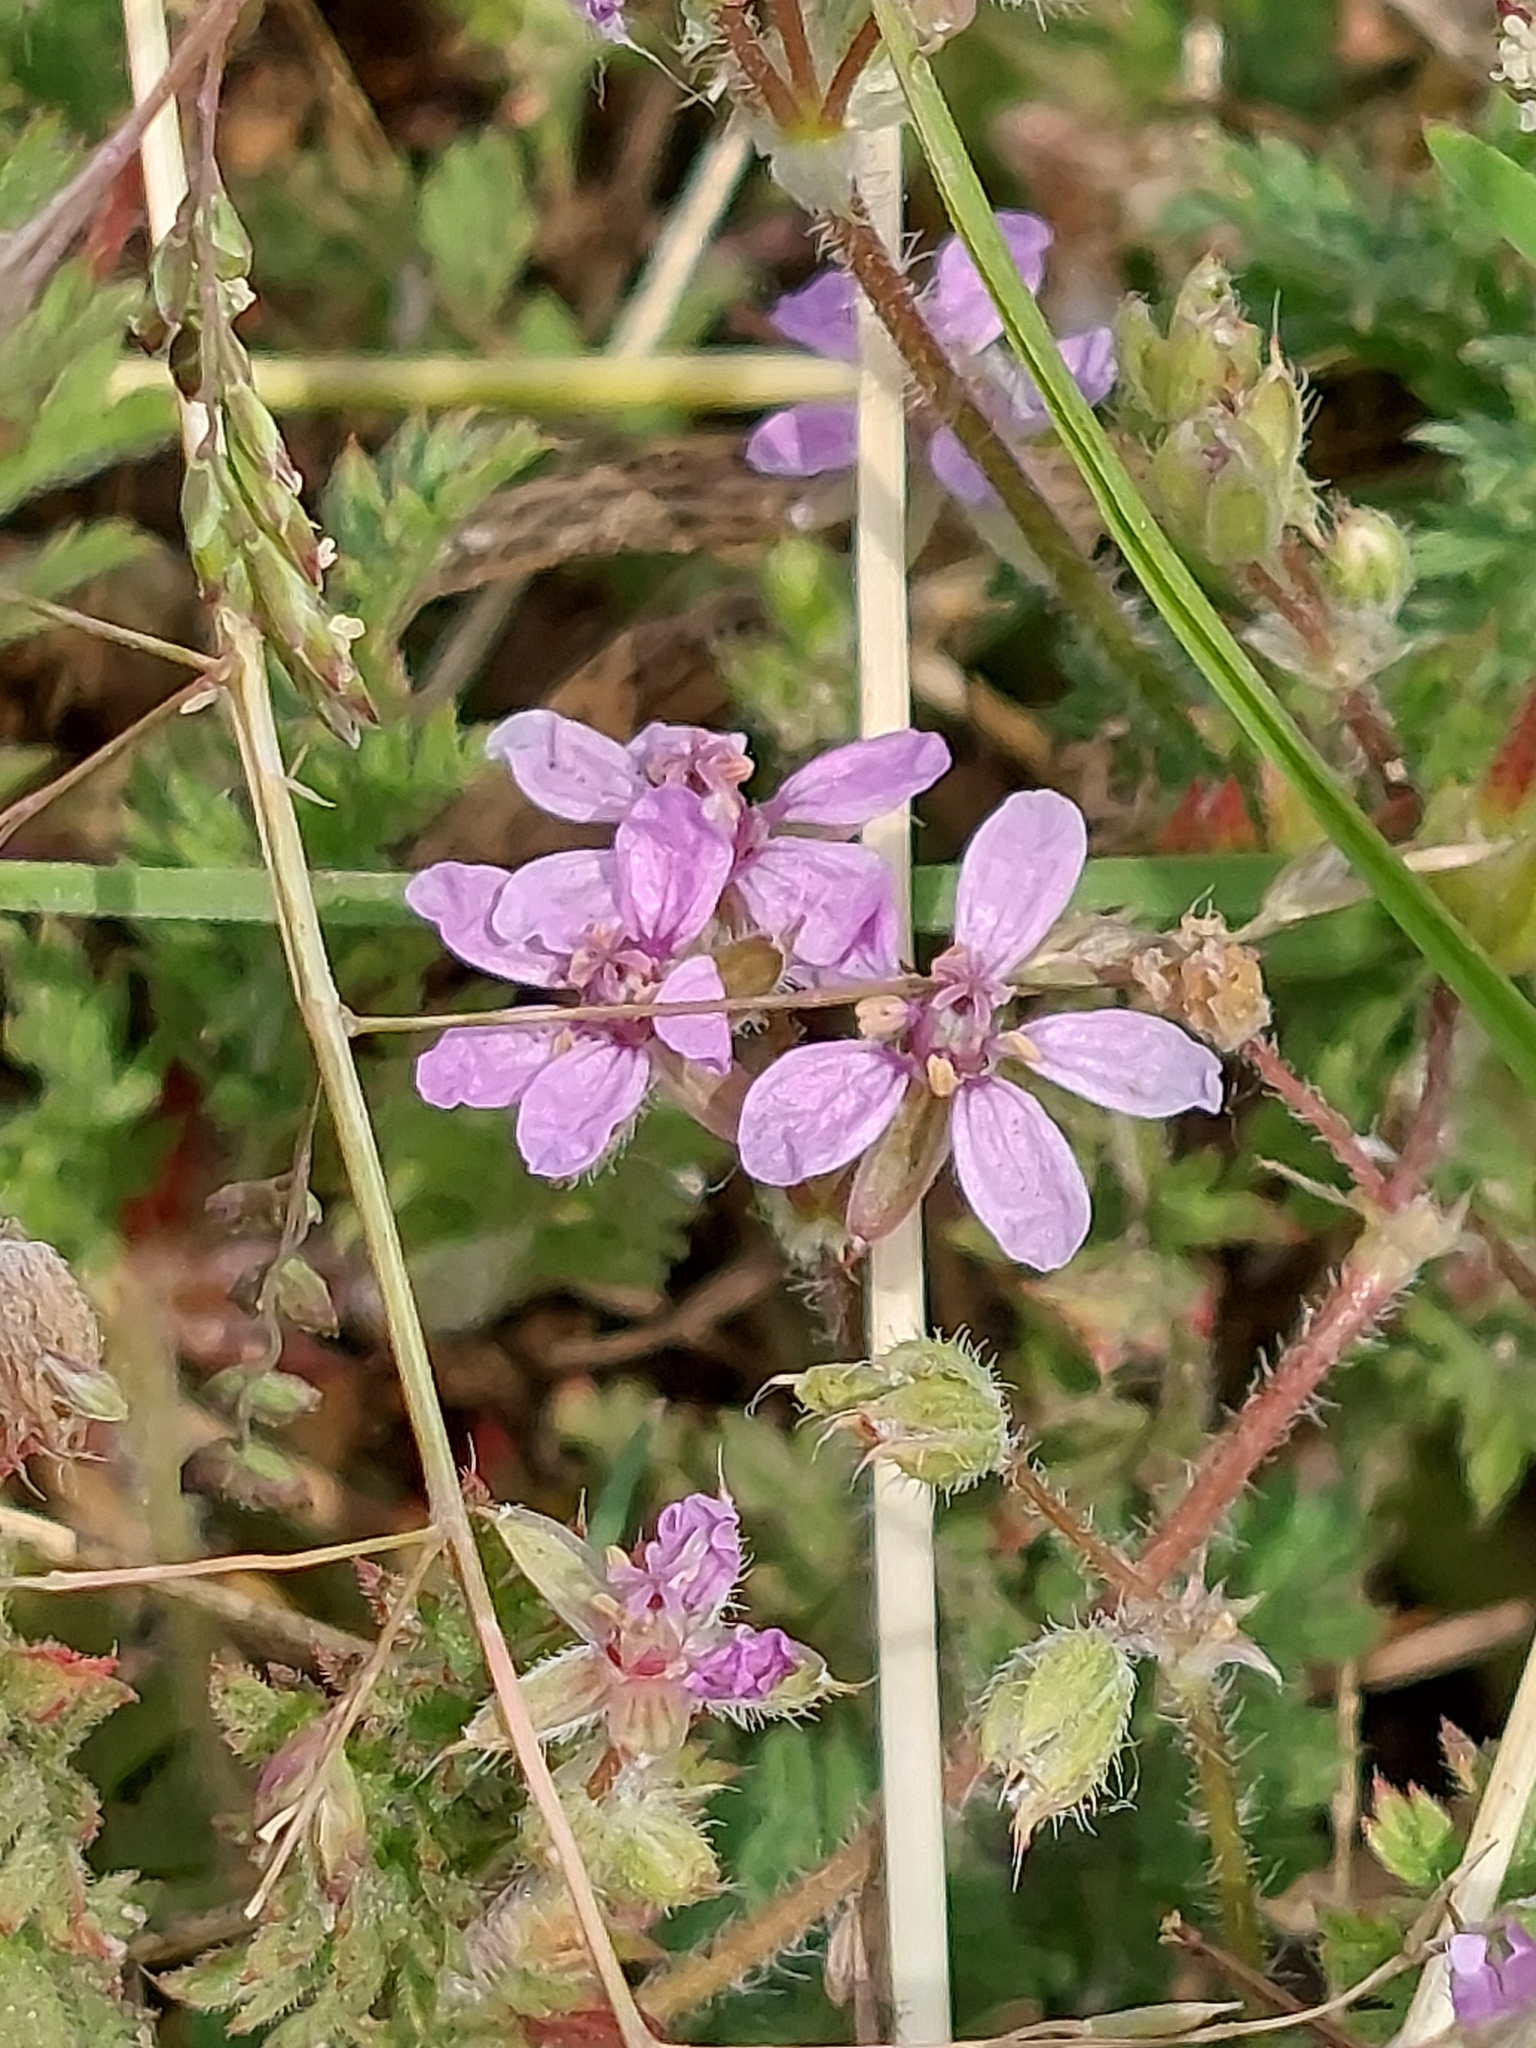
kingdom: Plantae
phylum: Tracheophyta
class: Magnoliopsida
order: Geraniales
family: Geraniaceae
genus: Erodium
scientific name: Erodium cicutarium
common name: Common stork's-bill
